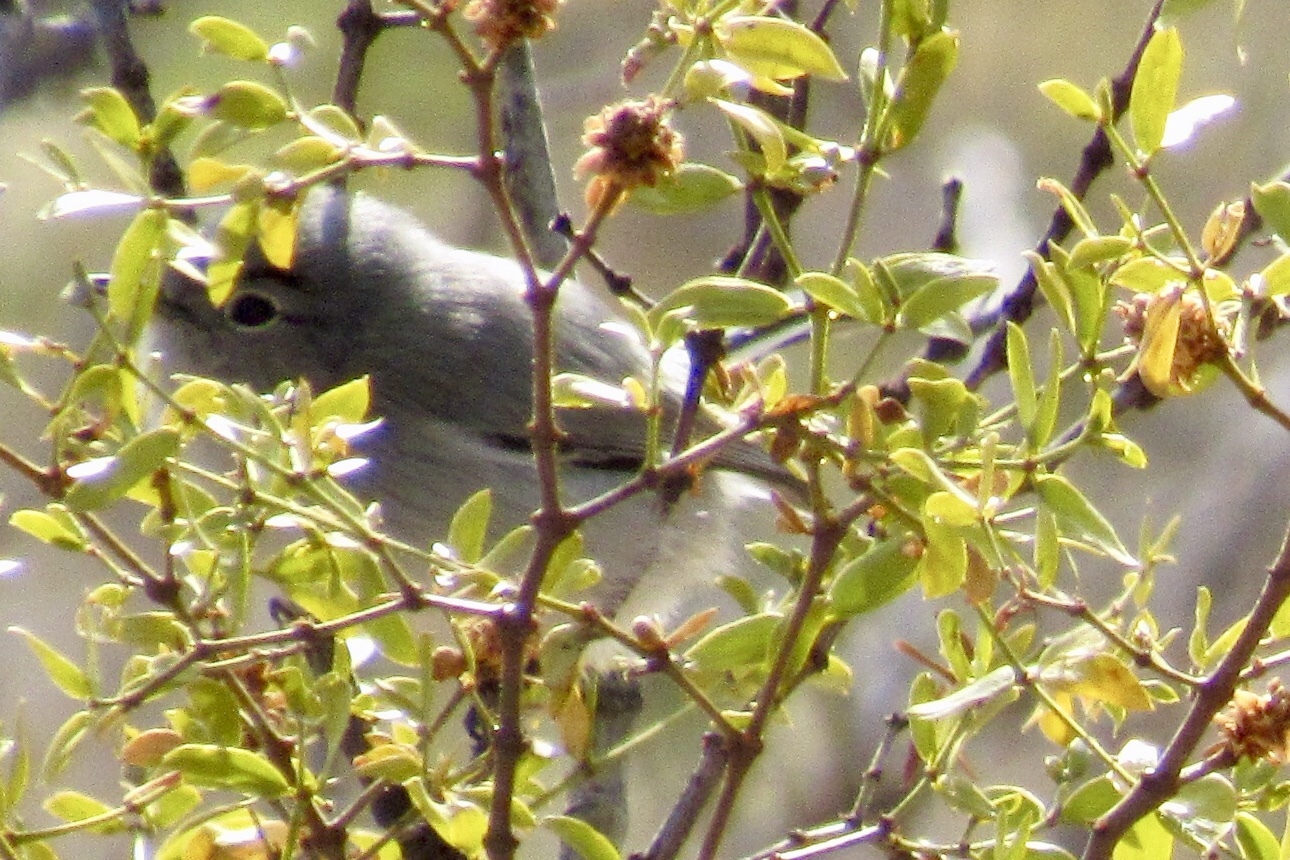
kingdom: Animalia
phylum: Chordata
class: Aves
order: Passeriformes
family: Polioptilidae
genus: Polioptila
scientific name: Polioptila melanura
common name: Black-tailed gnatcatcher
